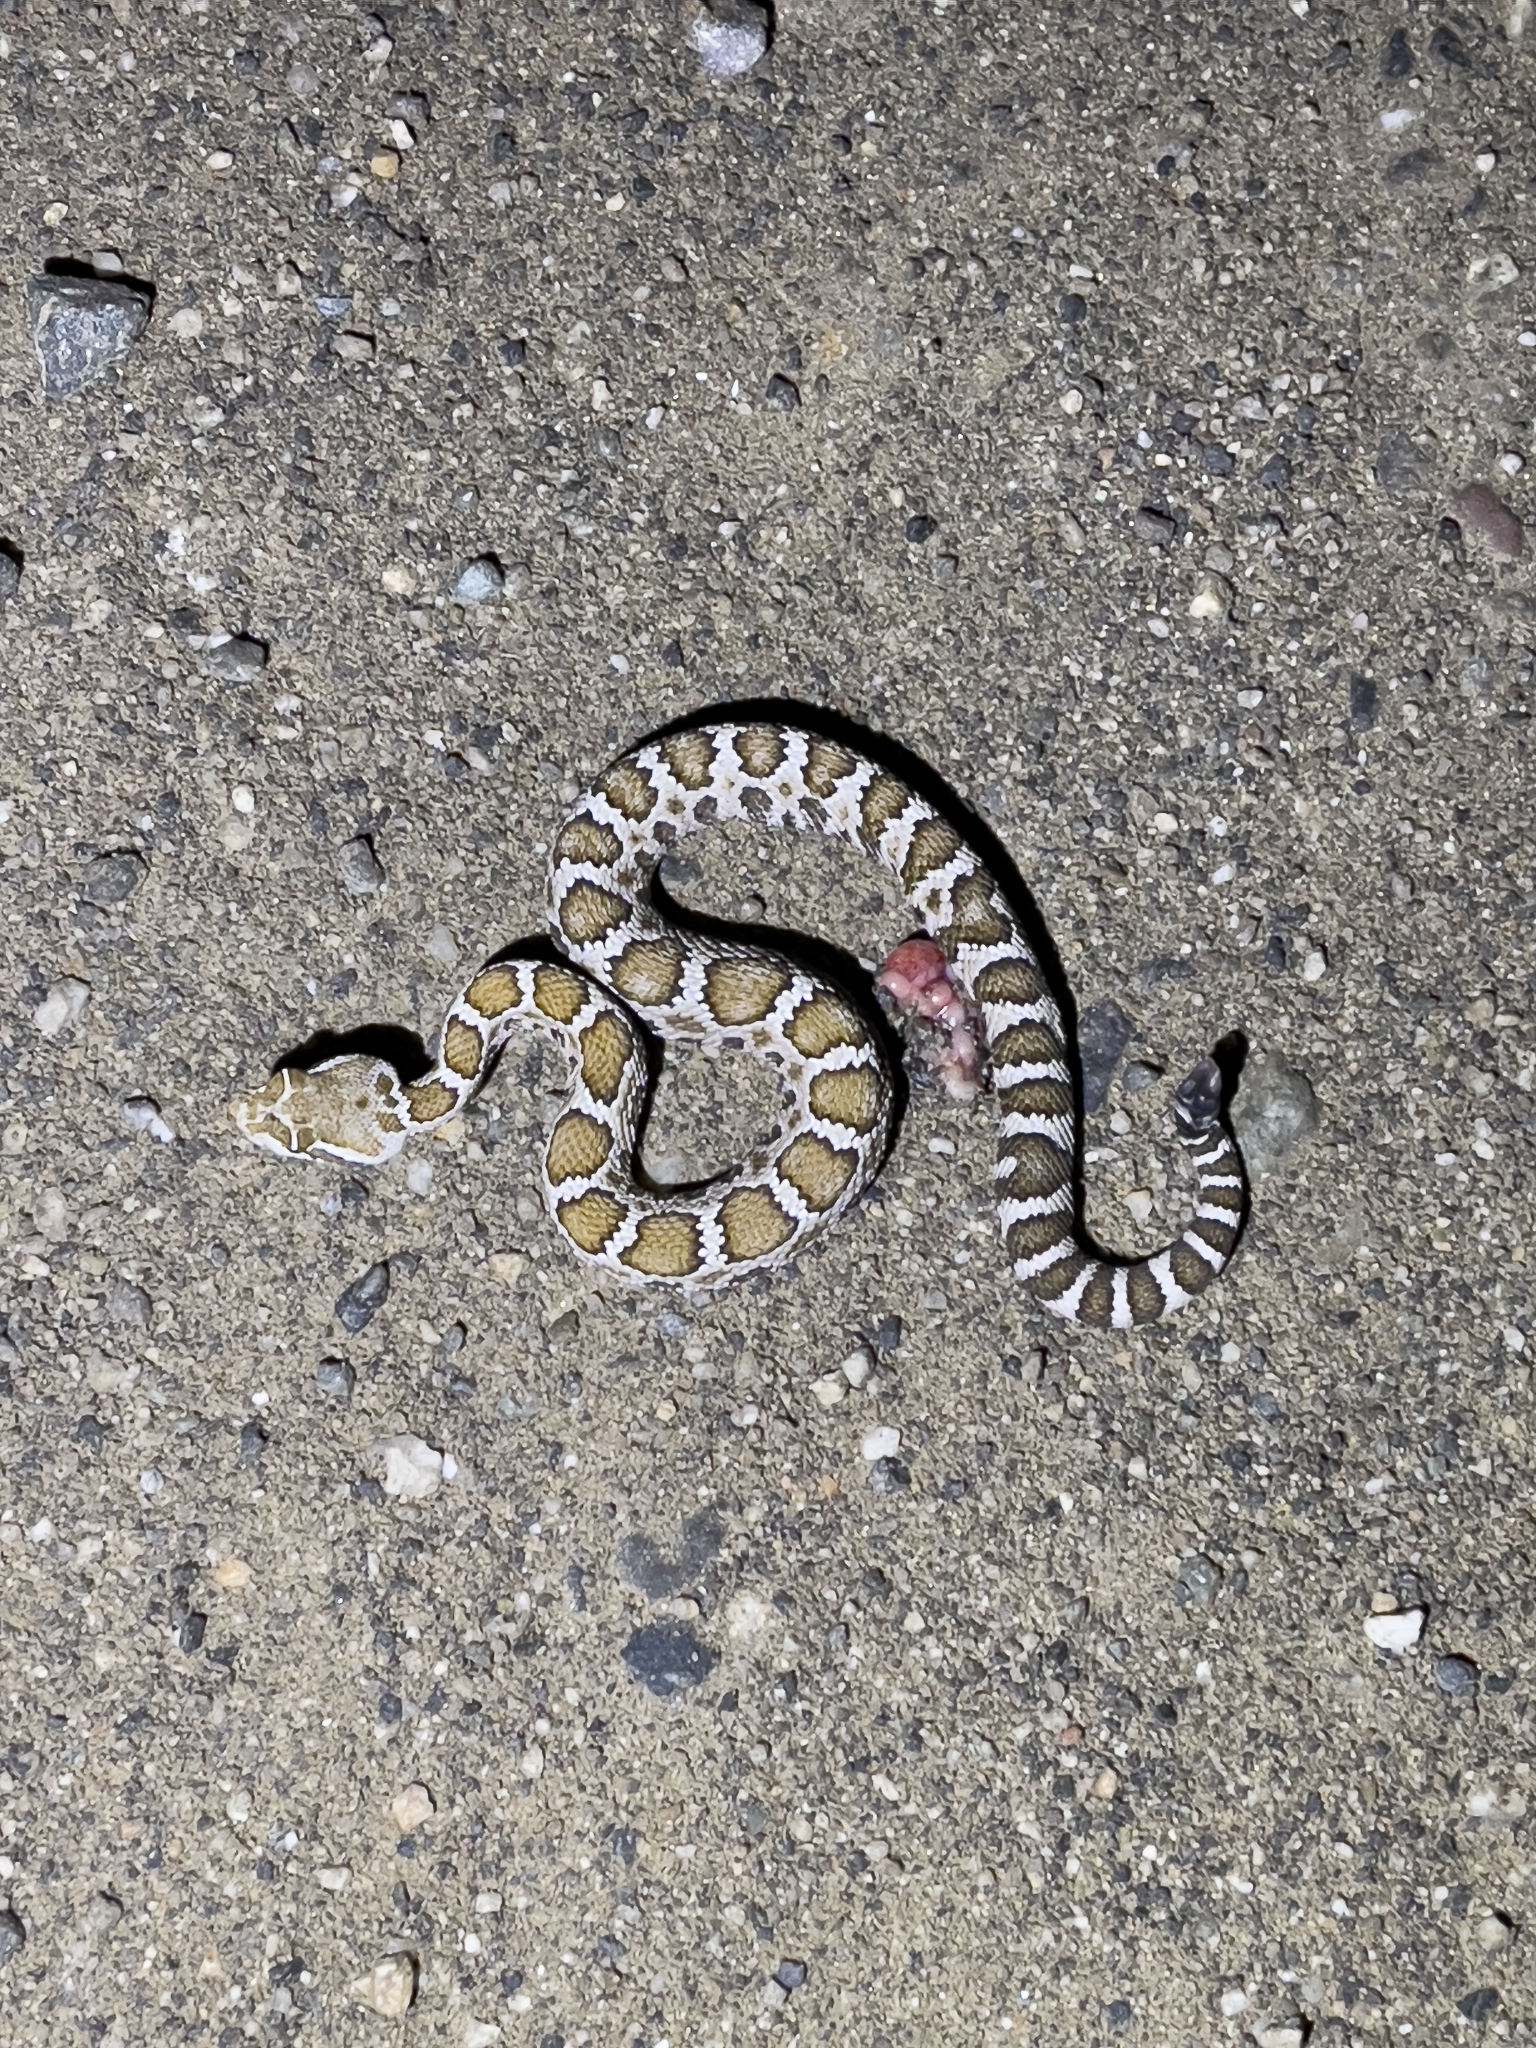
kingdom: Animalia
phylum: Chordata
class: Squamata
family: Viperidae
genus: Crotalus
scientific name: Crotalus oreganus
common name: Abyssus
